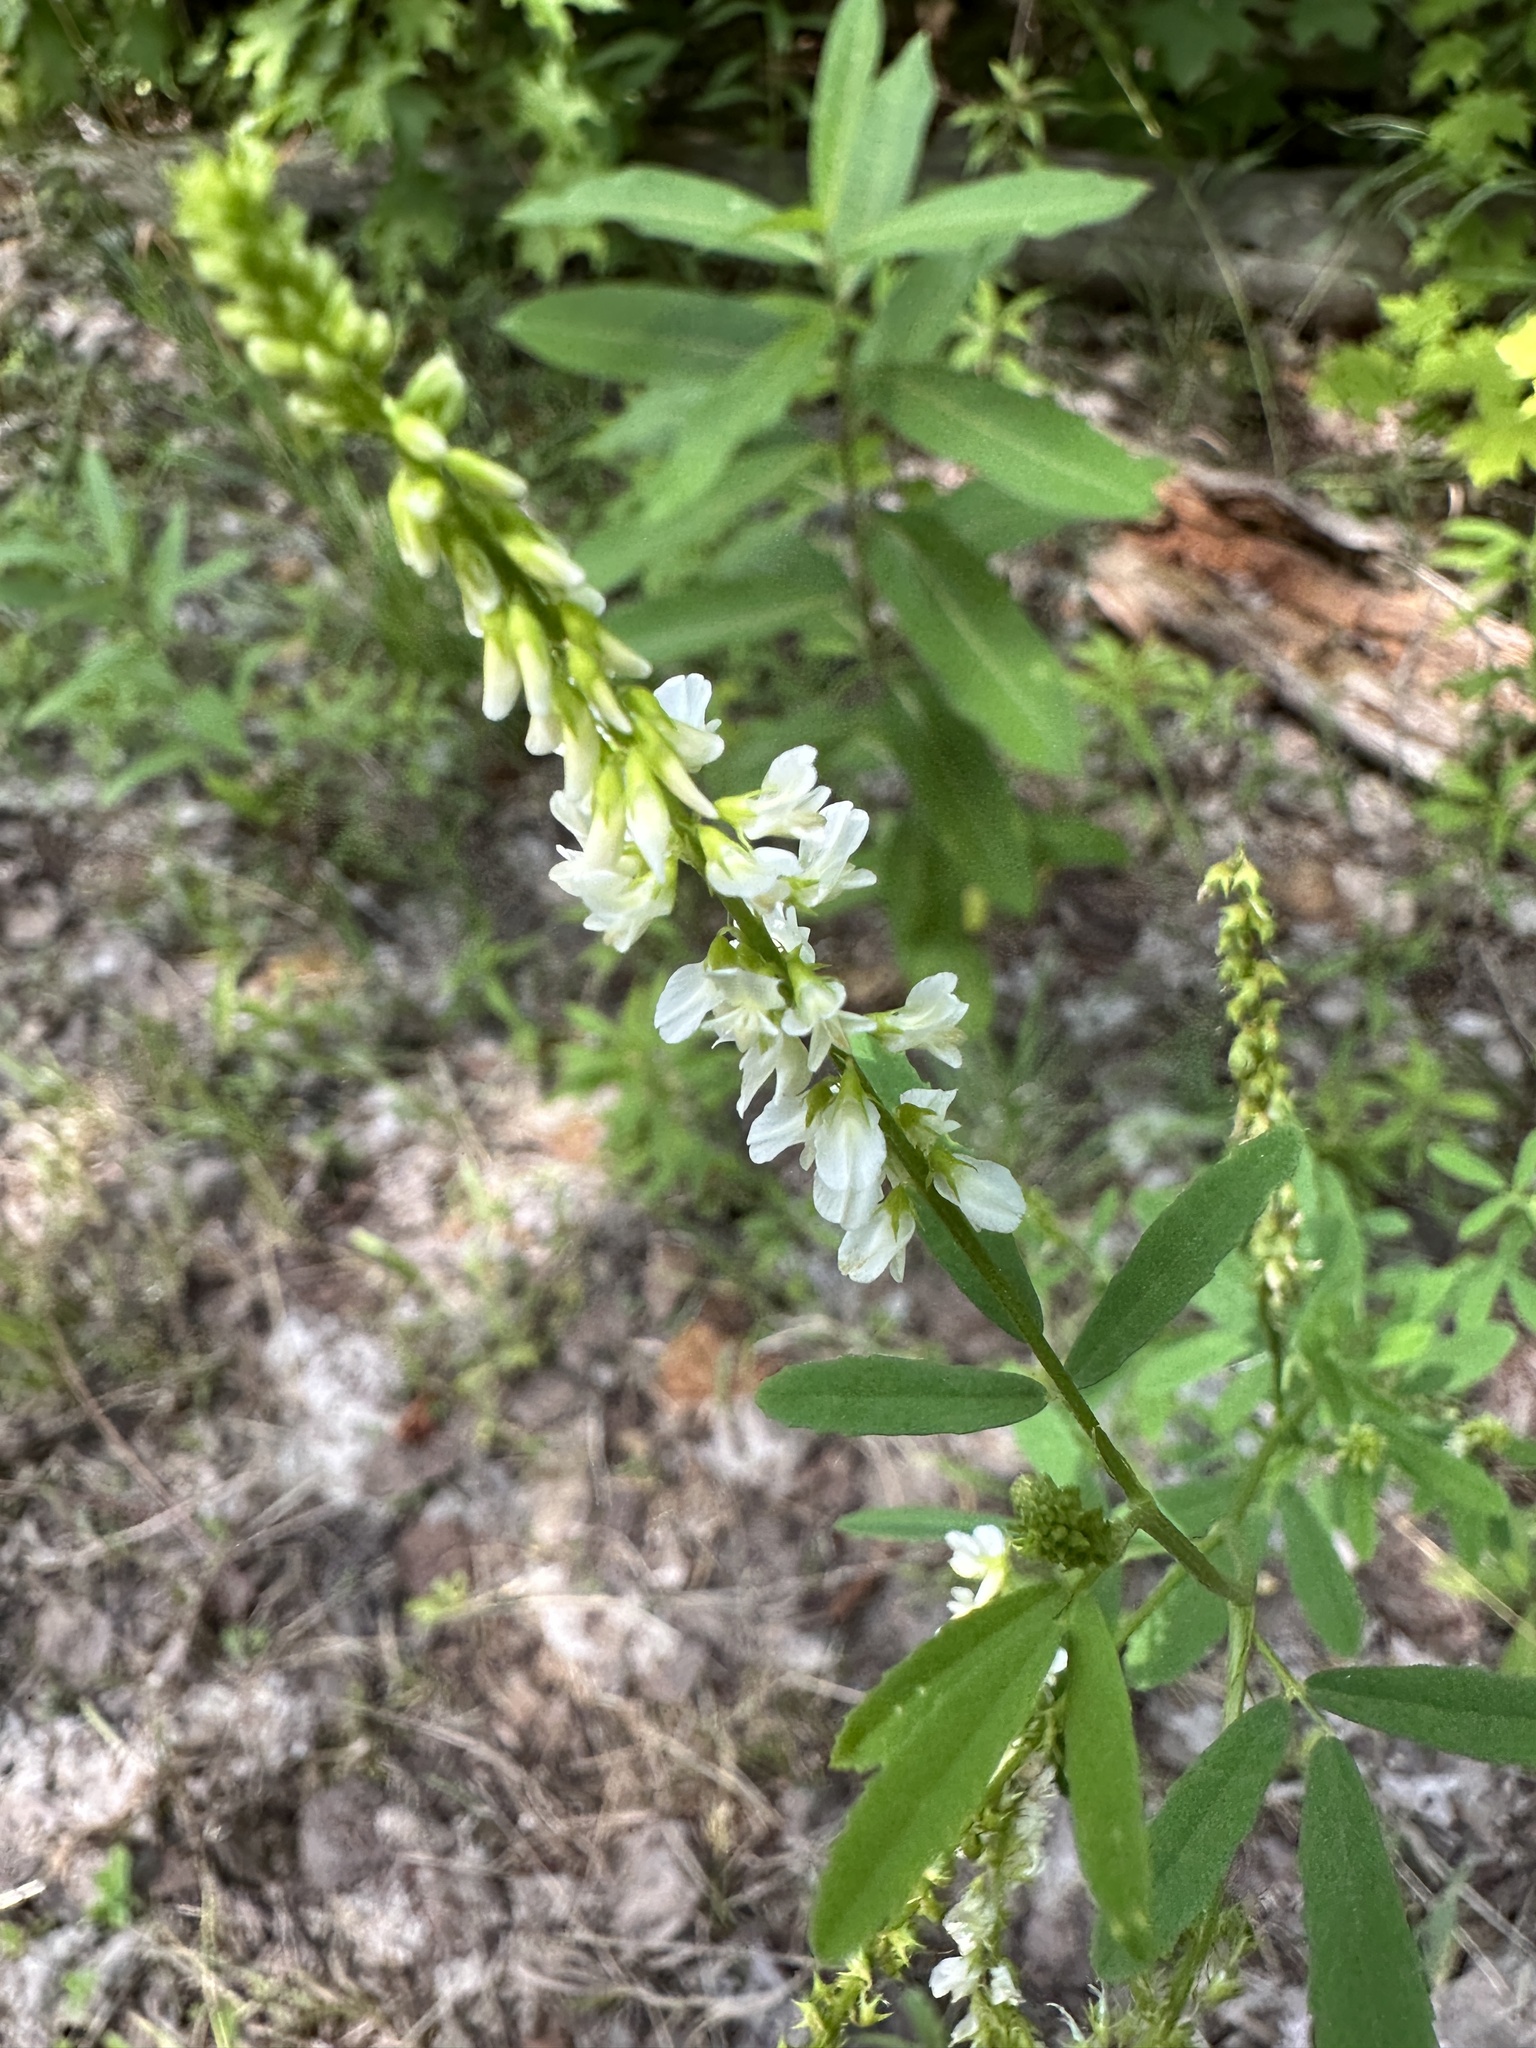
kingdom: Plantae
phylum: Tracheophyta
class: Magnoliopsida
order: Fabales
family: Fabaceae
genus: Melilotus
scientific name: Melilotus albus
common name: White melilot
